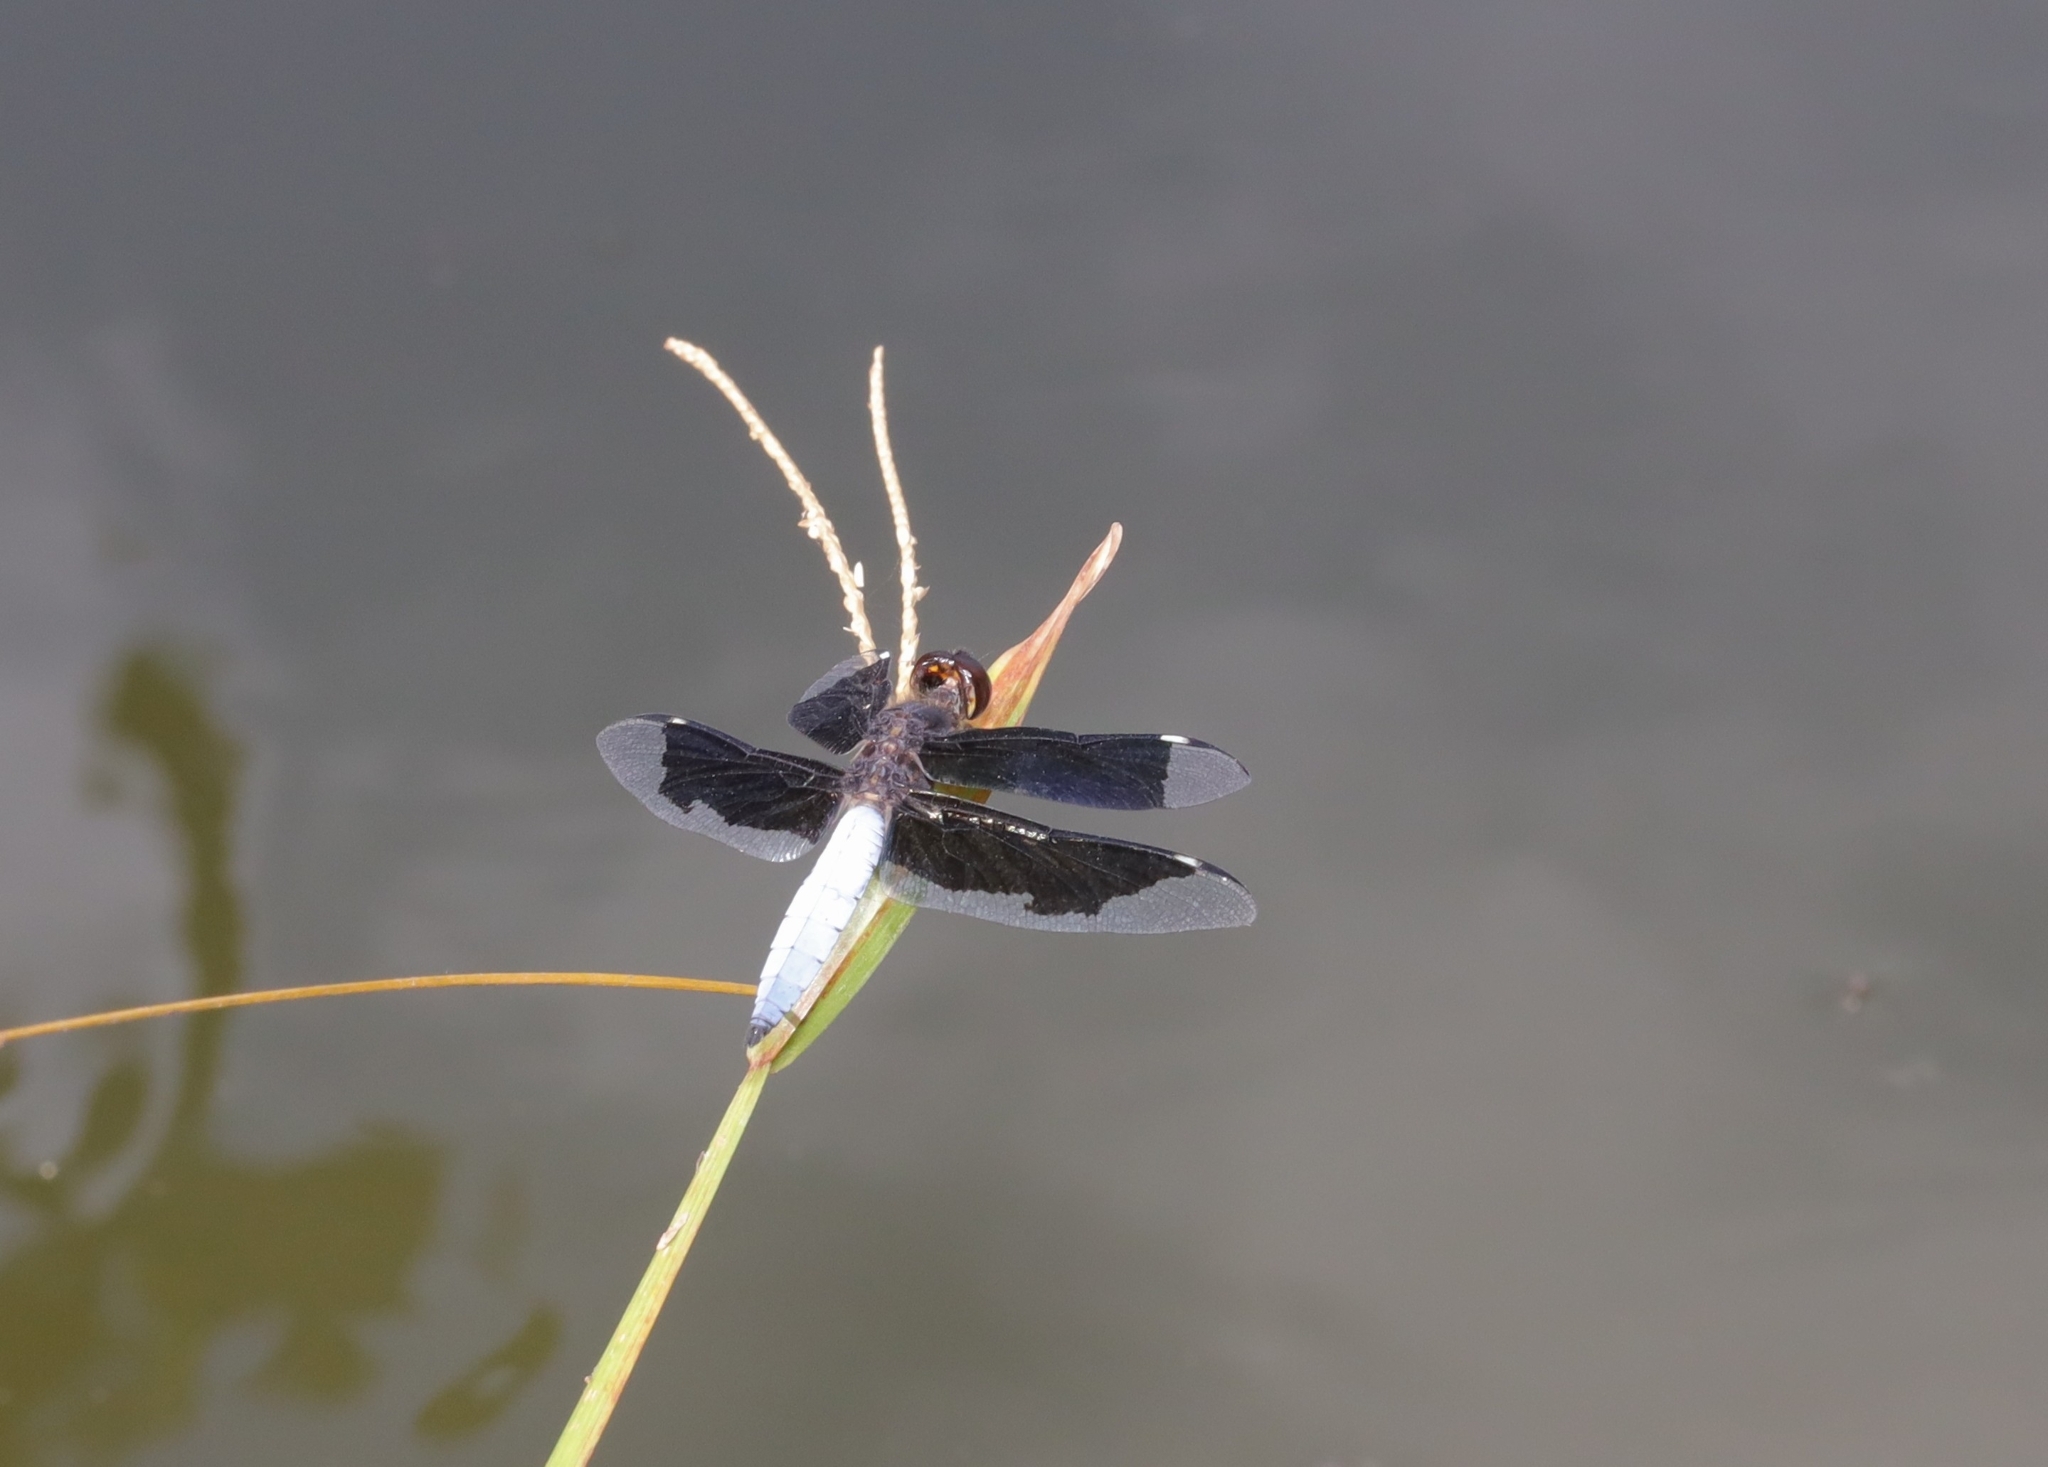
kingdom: Animalia
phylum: Arthropoda
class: Insecta
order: Odonata
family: Libellulidae
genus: Palpopleura
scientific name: Palpopleura lucia
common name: Lucia widow
